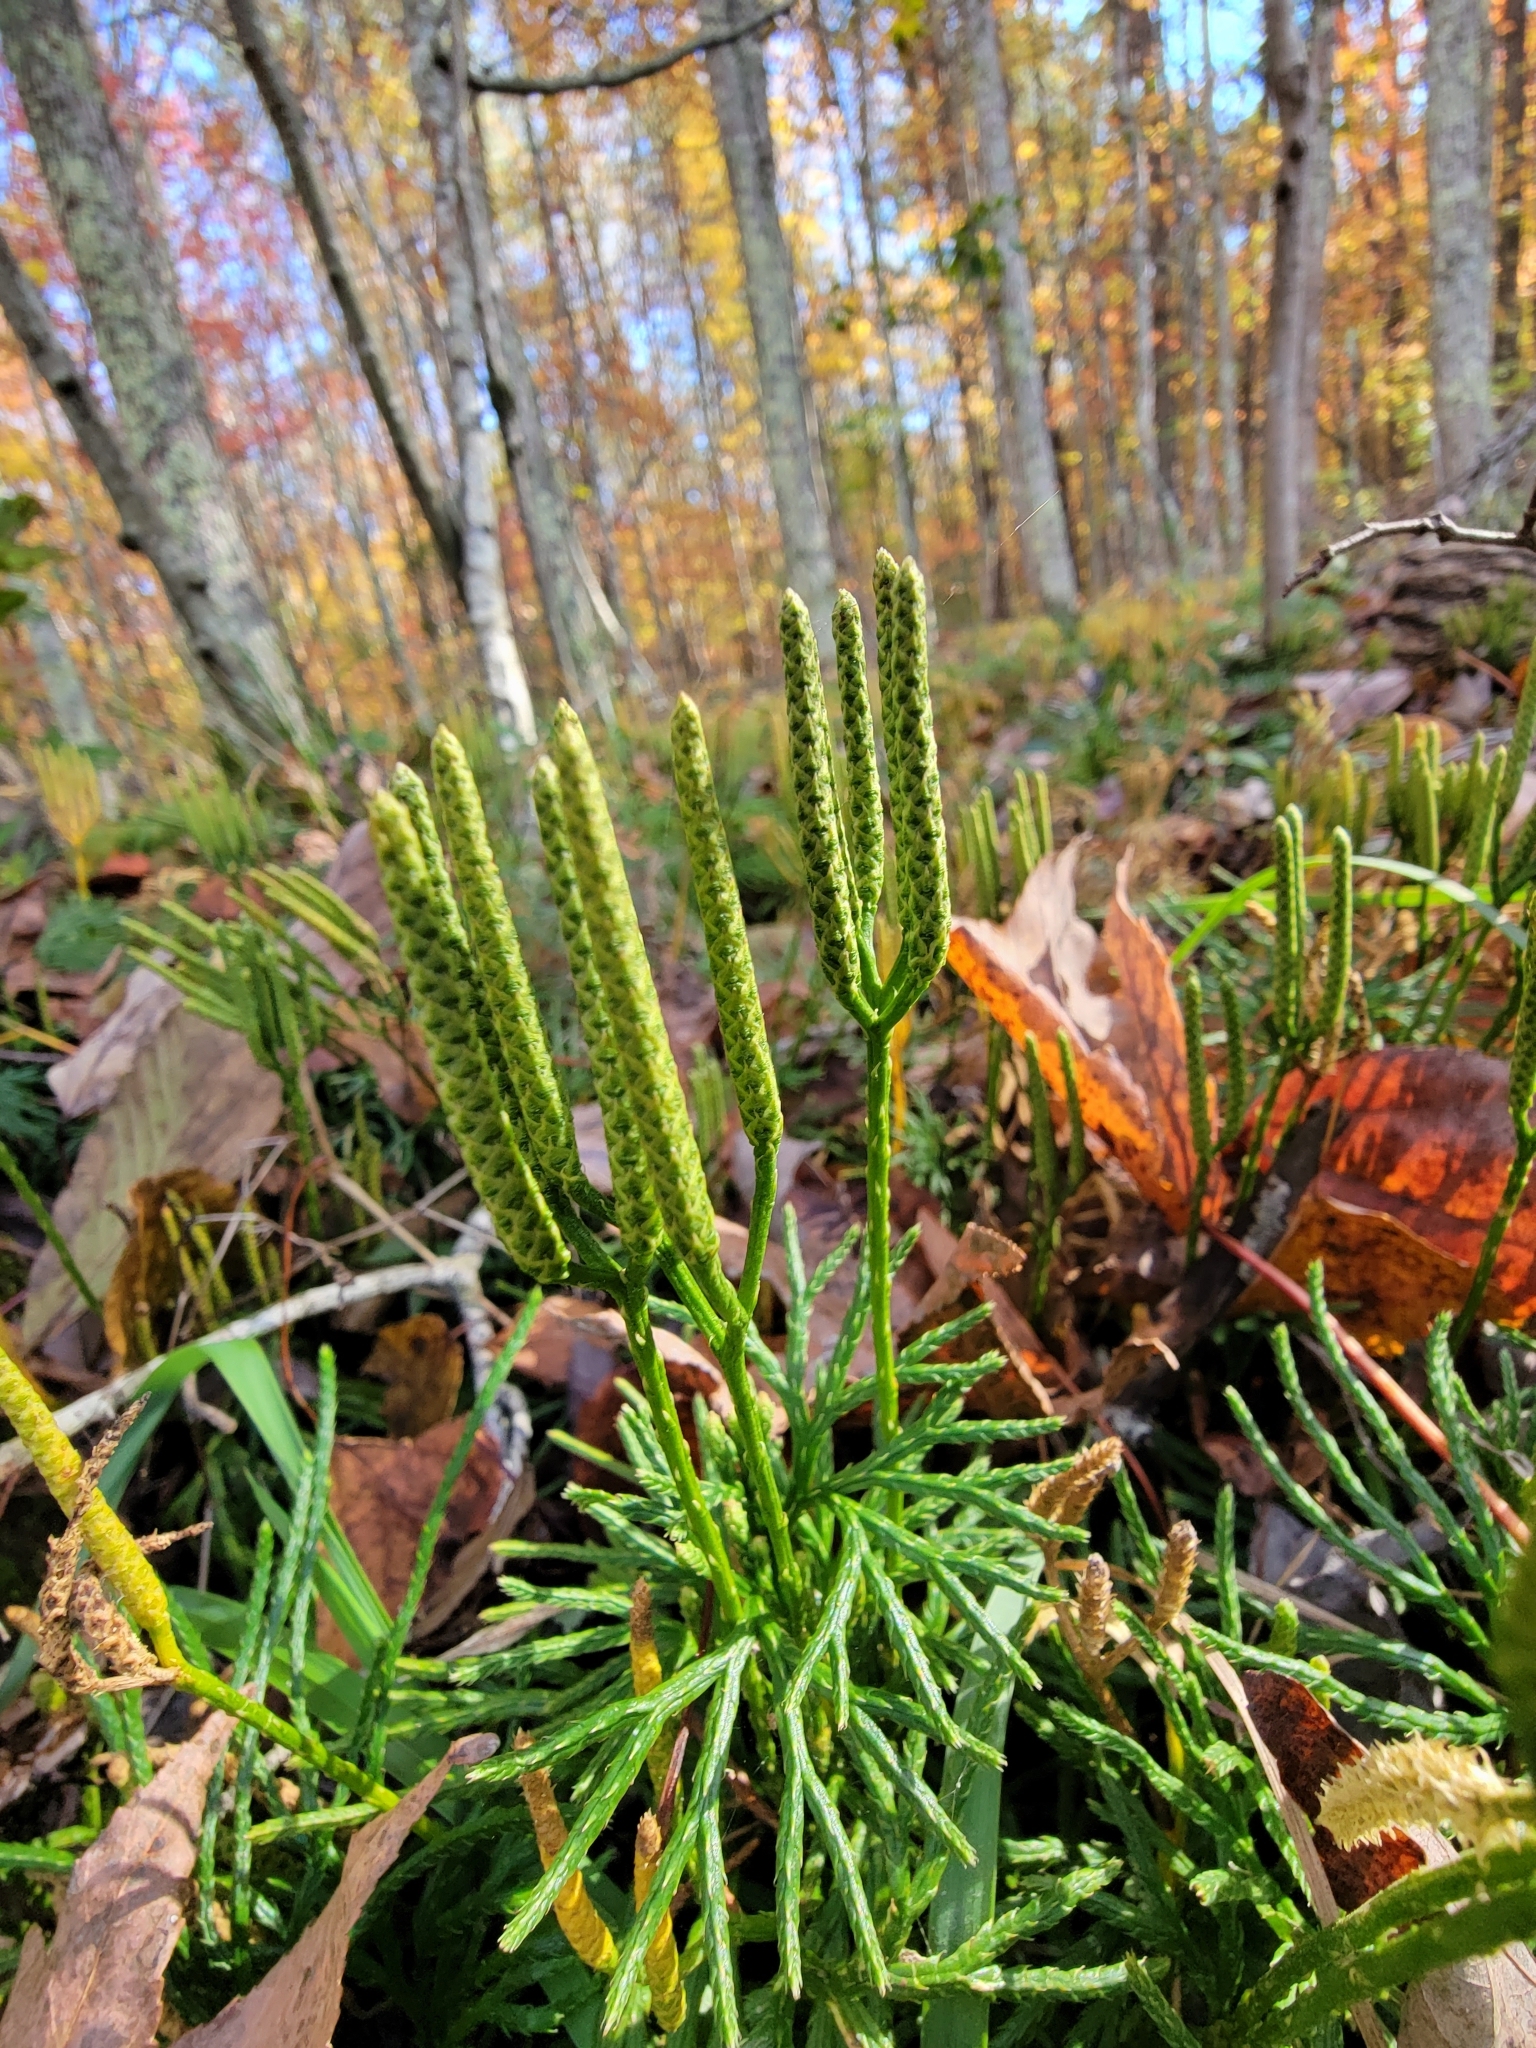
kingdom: Plantae
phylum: Tracheophyta
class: Lycopodiopsida
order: Lycopodiales
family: Lycopodiaceae
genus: Diphasiastrum
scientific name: Diphasiastrum digitatum
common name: Southern running-pine
